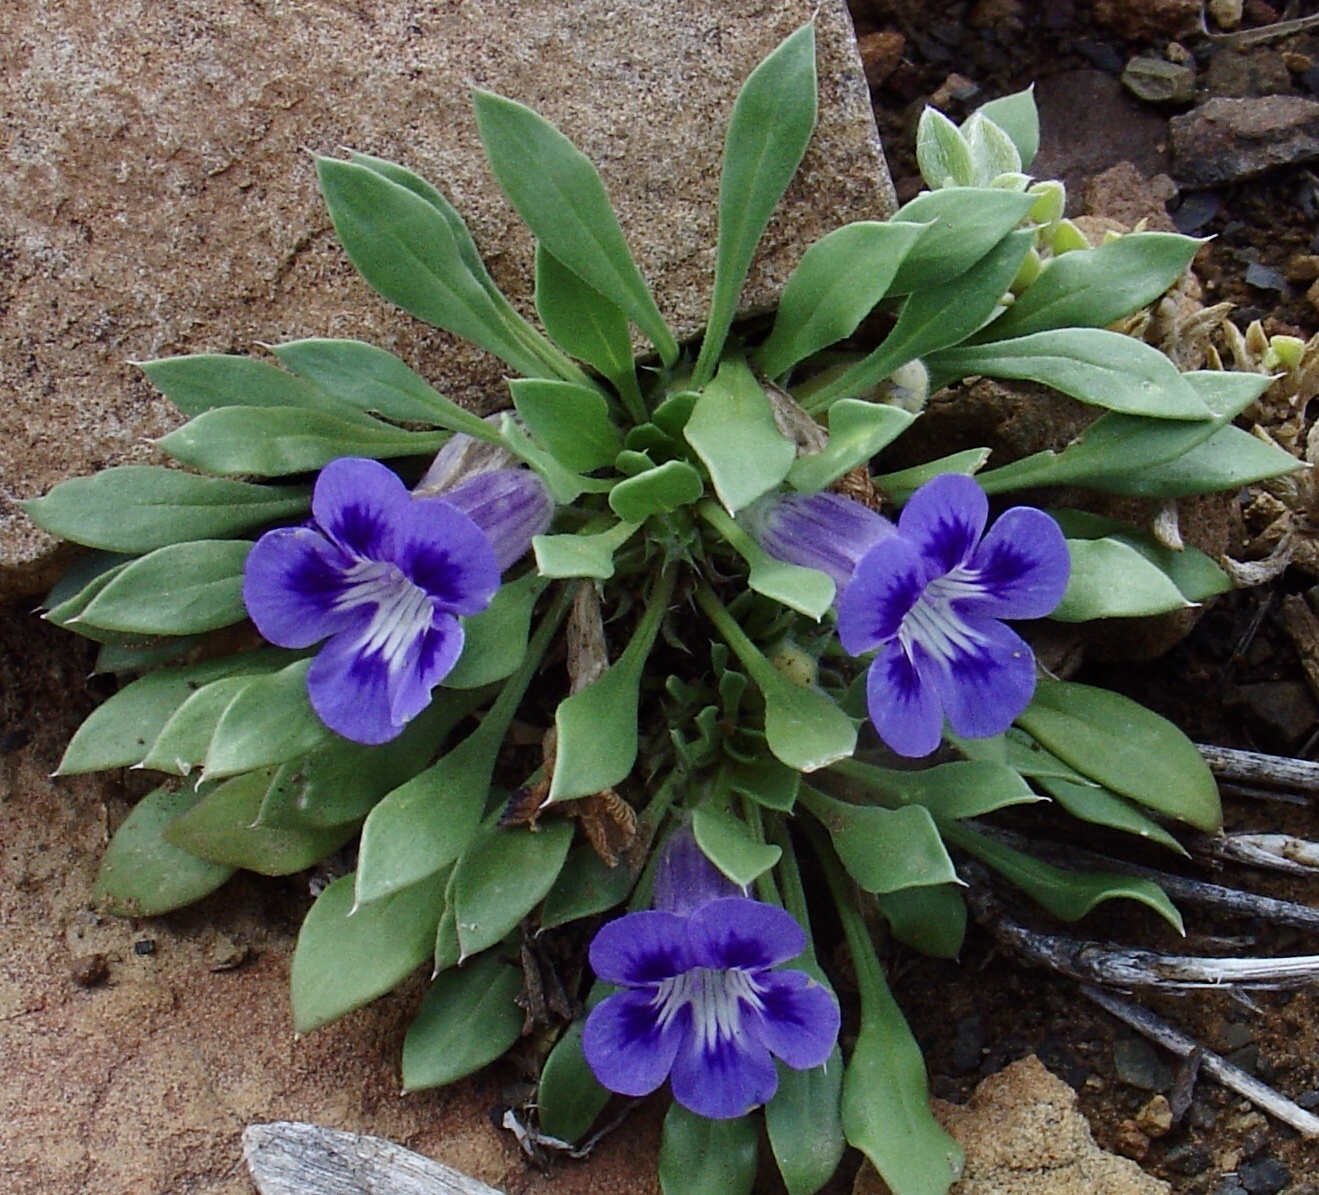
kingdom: Plantae
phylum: Tracheophyta
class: Magnoliopsida
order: Lamiales
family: Scrophulariaceae
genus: Aptosimum
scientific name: Aptosimum indivisum
